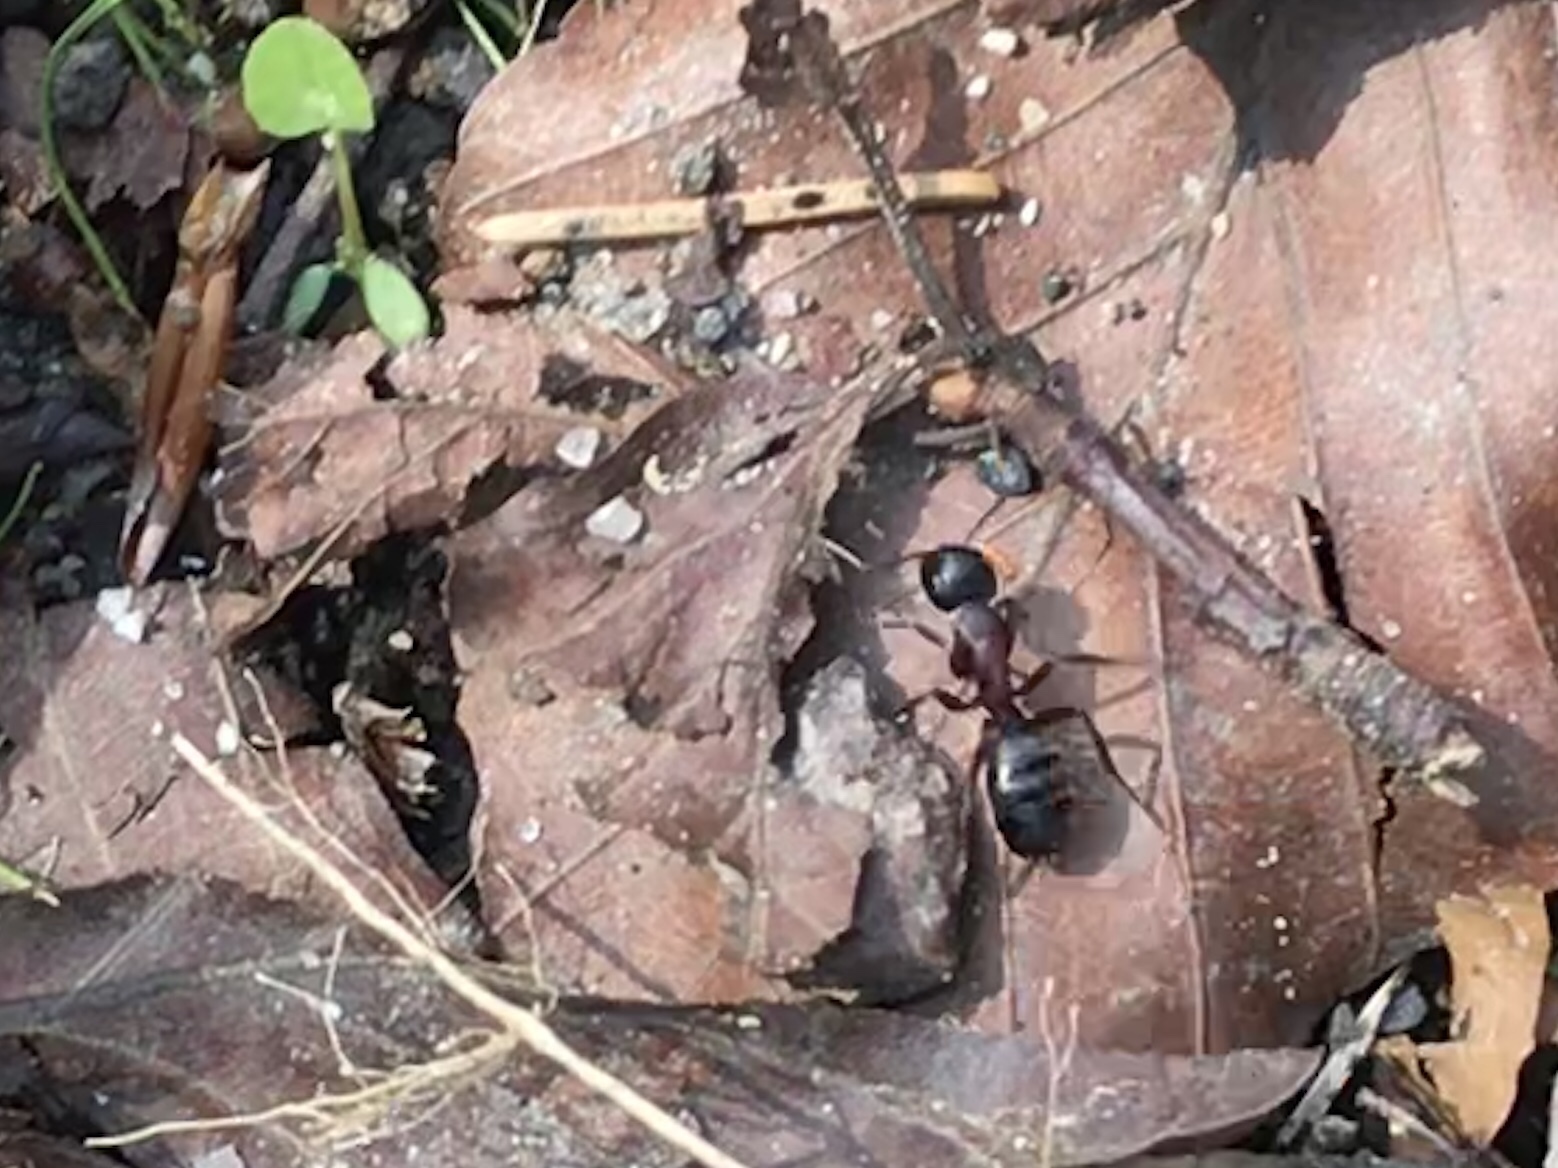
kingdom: Animalia
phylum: Arthropoda
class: Insecta
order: Hymenoptera
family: Formicidae
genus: Camponotus
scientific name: Camponotus herculeanus
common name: Hercules ant
